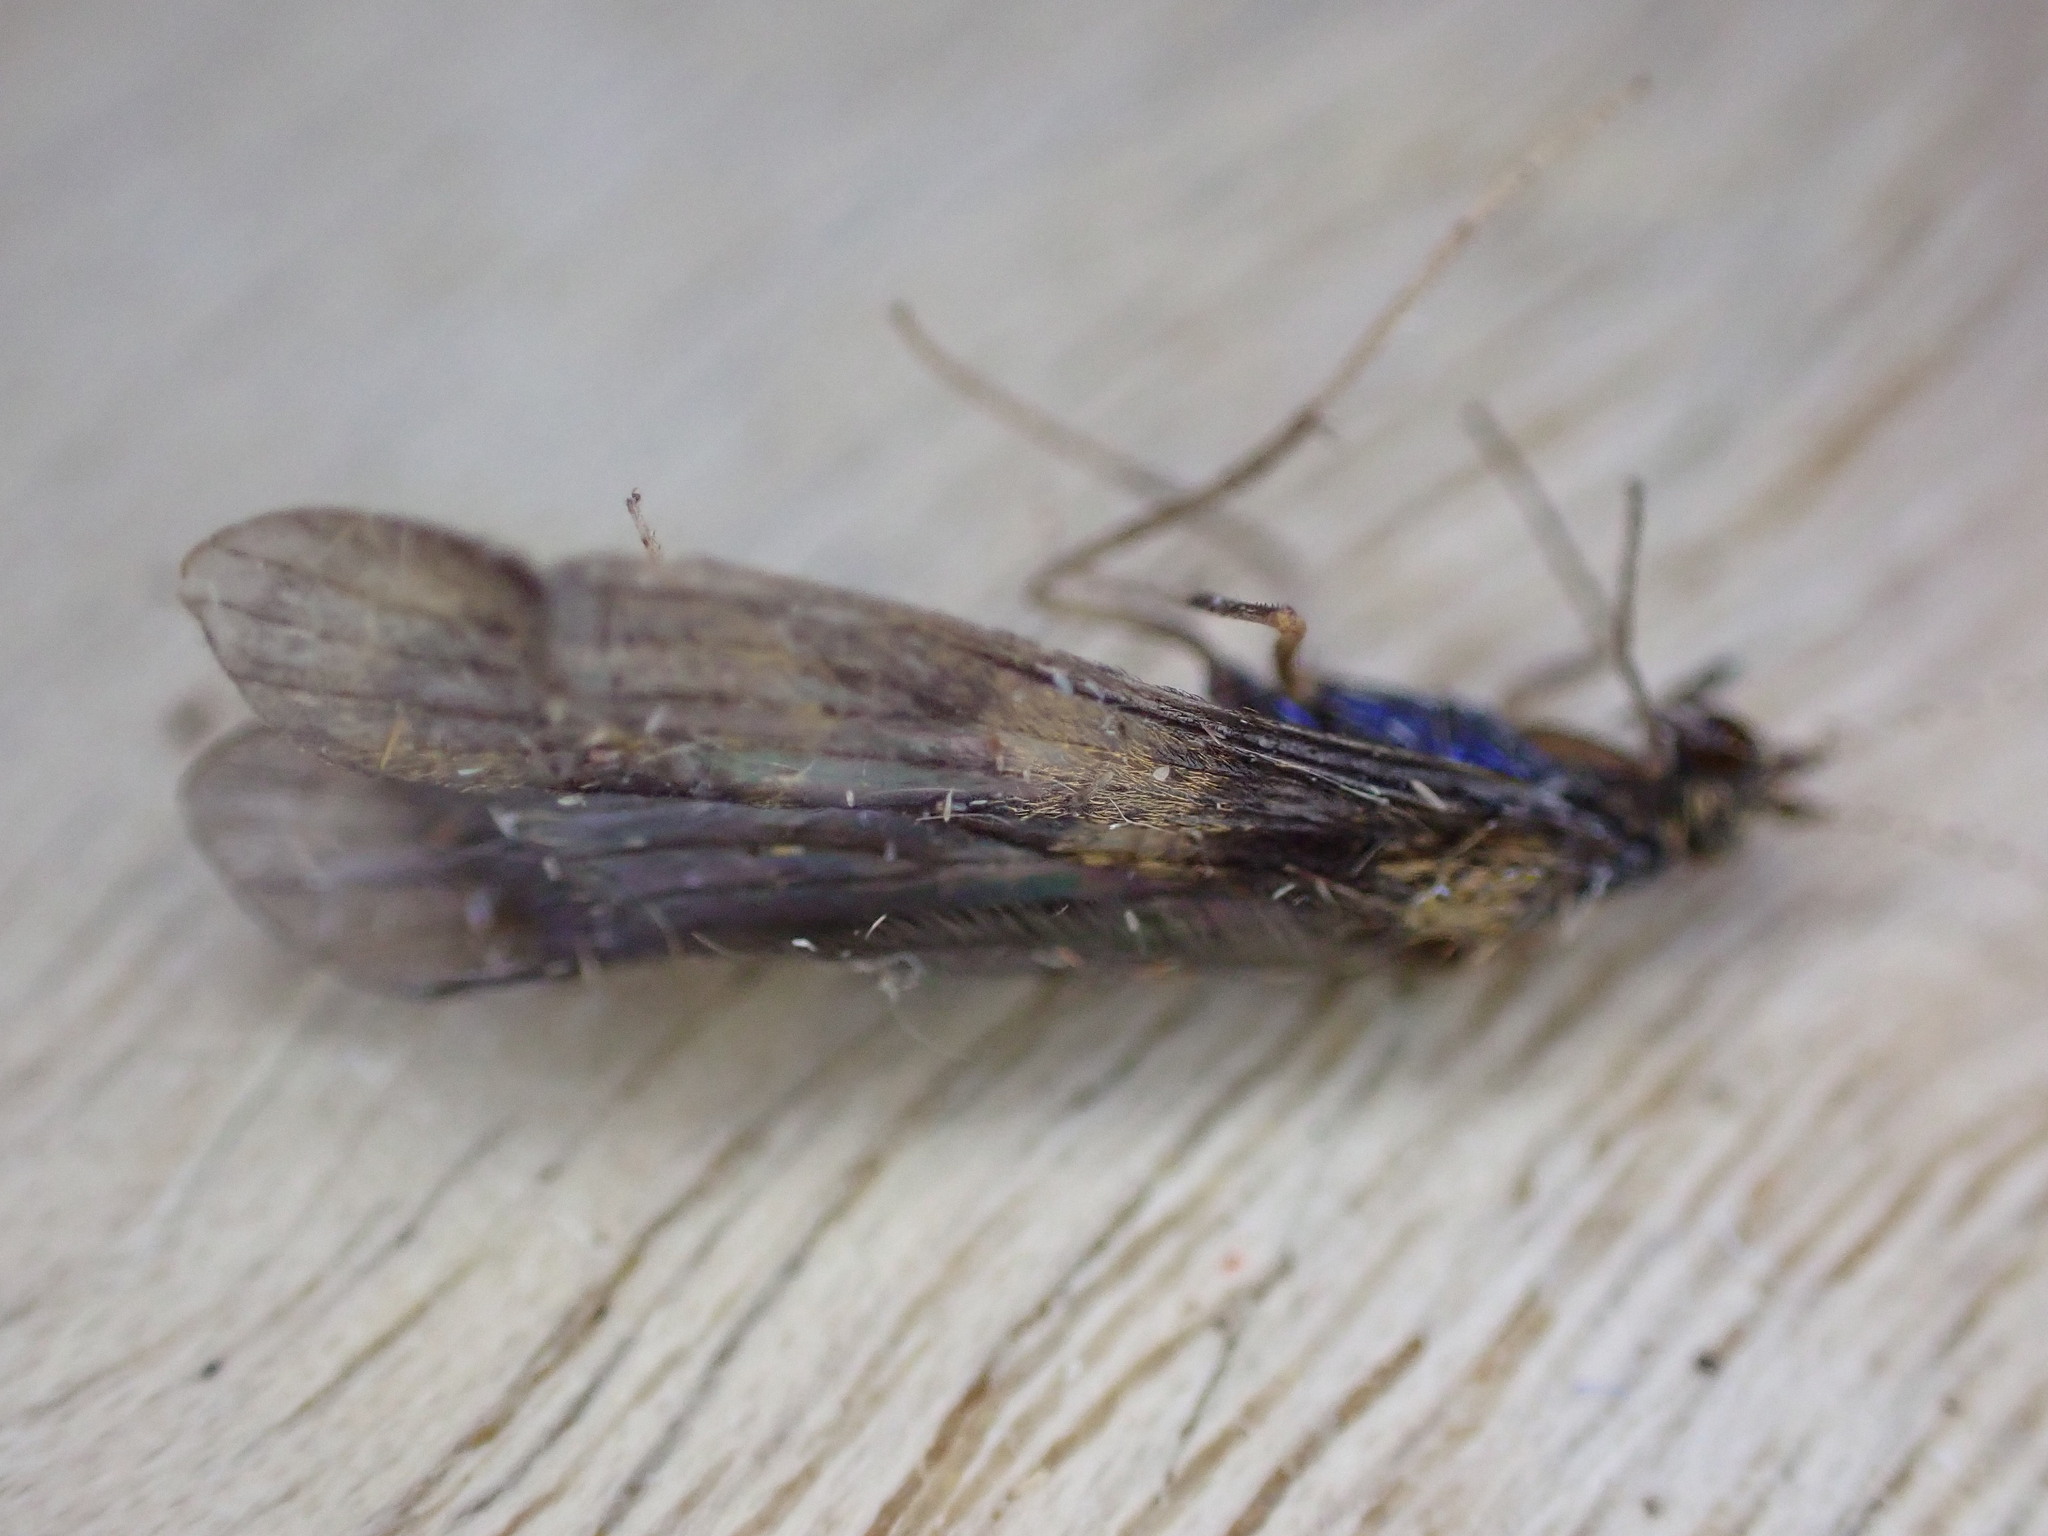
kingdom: Animalia
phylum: Arthropoda
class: Insecta
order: Trichoptera
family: Leptoceridae
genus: Mystacides
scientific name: Mystacides longicornis
